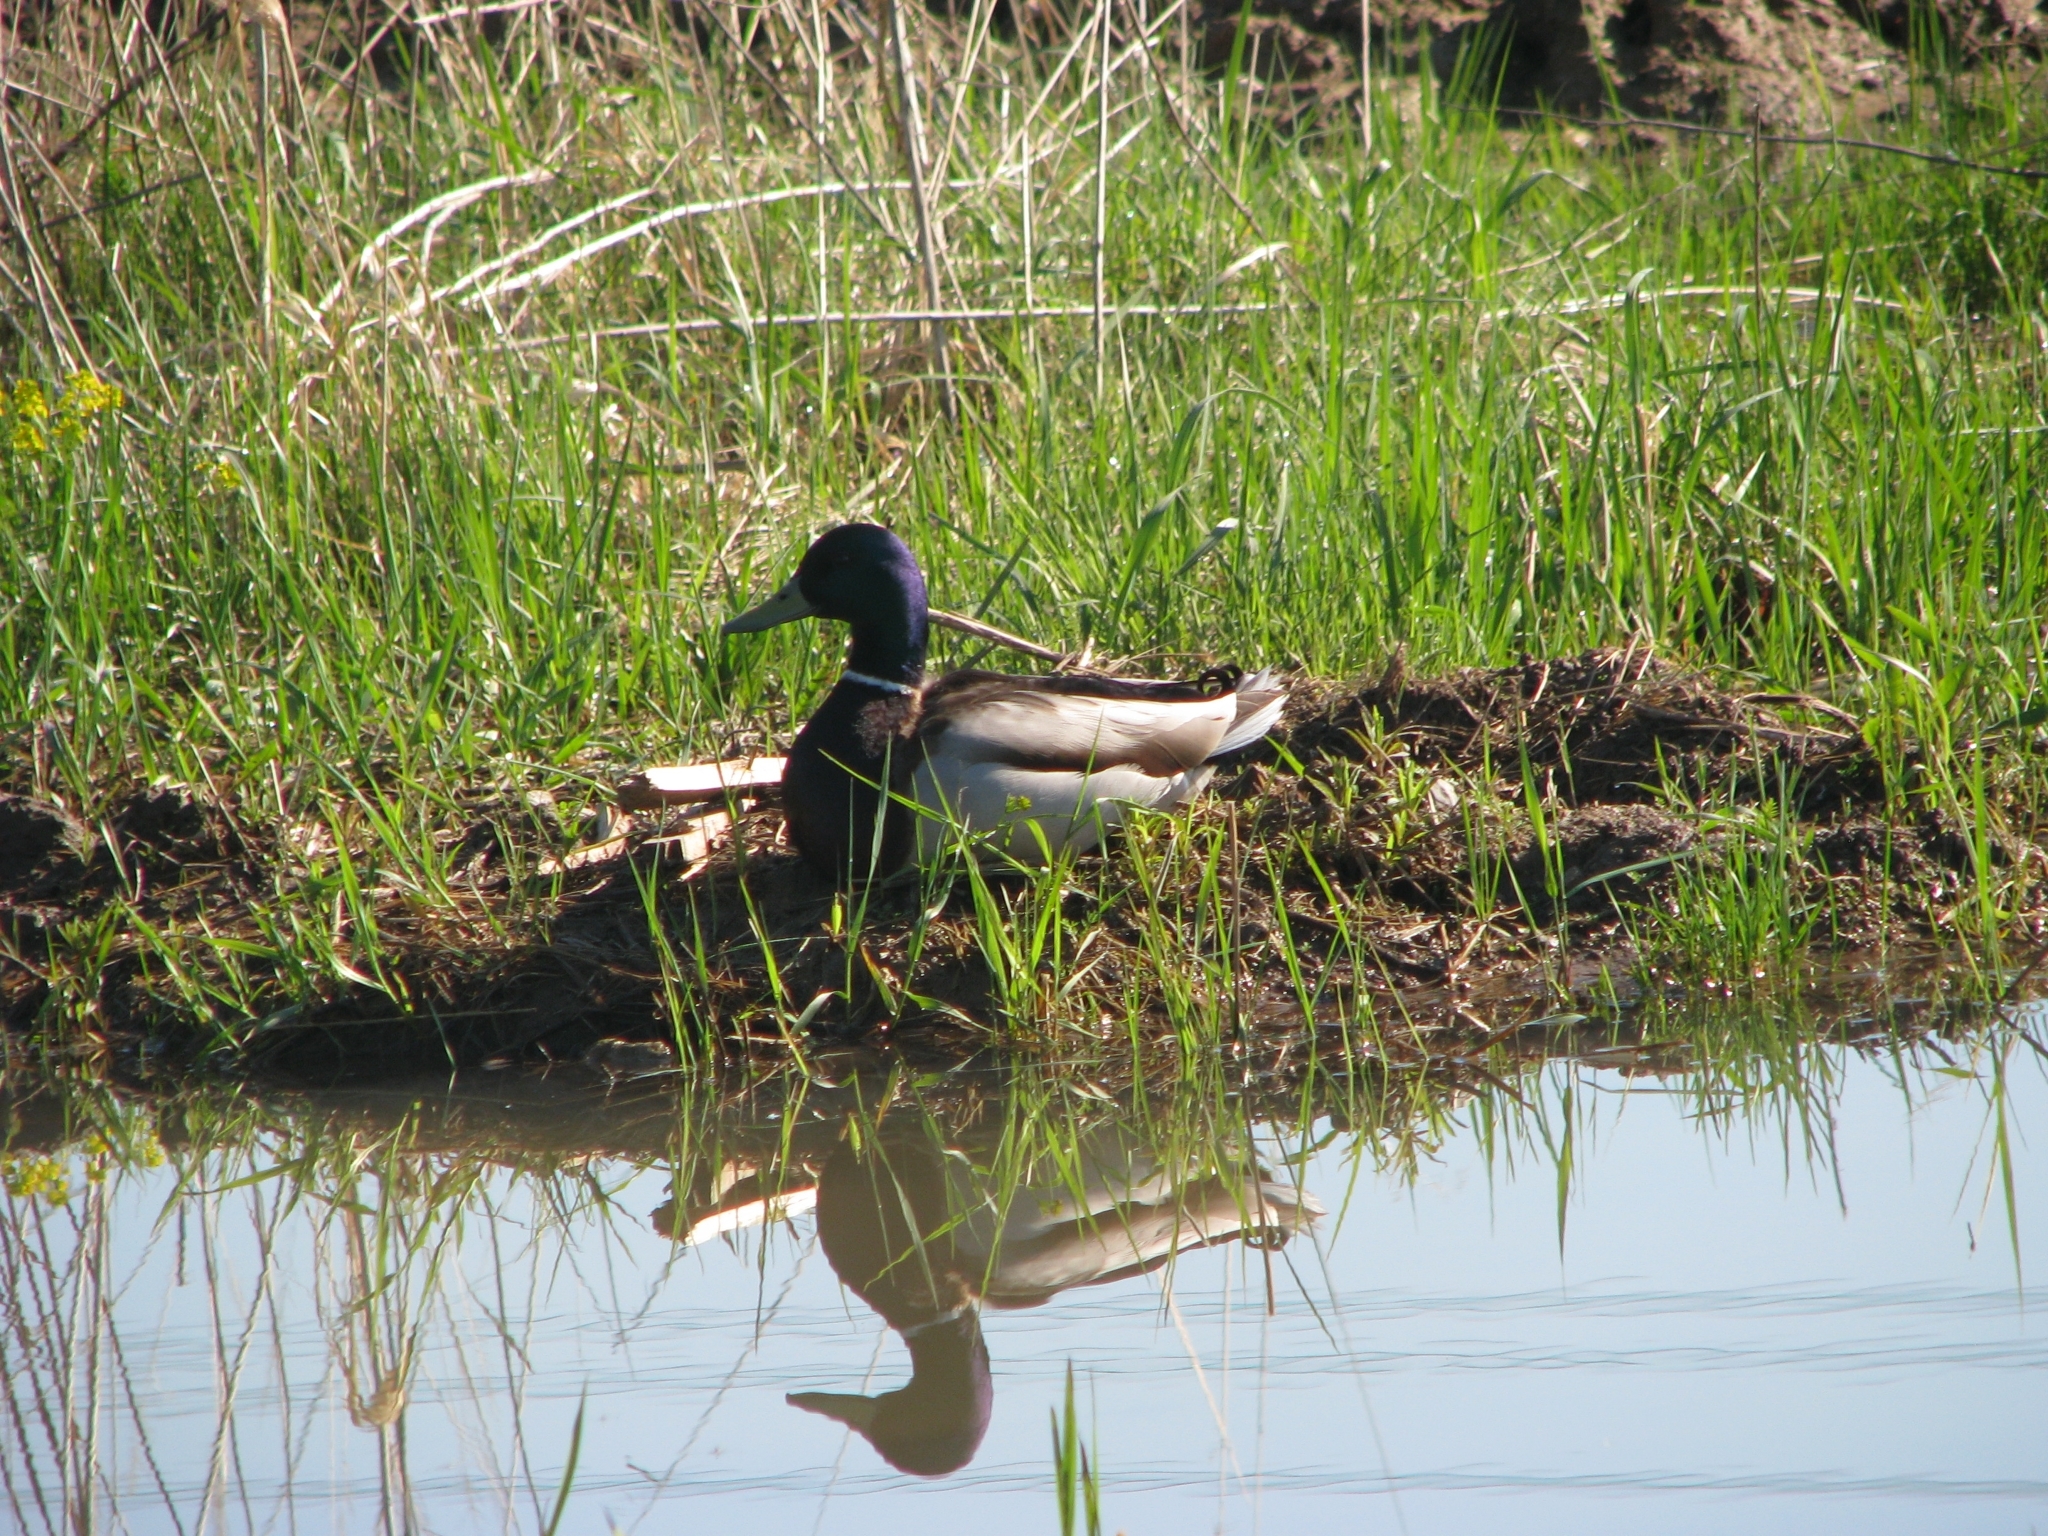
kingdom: Animalia
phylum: Chordata
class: Aves
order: Anseriformes
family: Anatidae
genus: Anas
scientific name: Anas platyrhynchos
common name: Mallard
